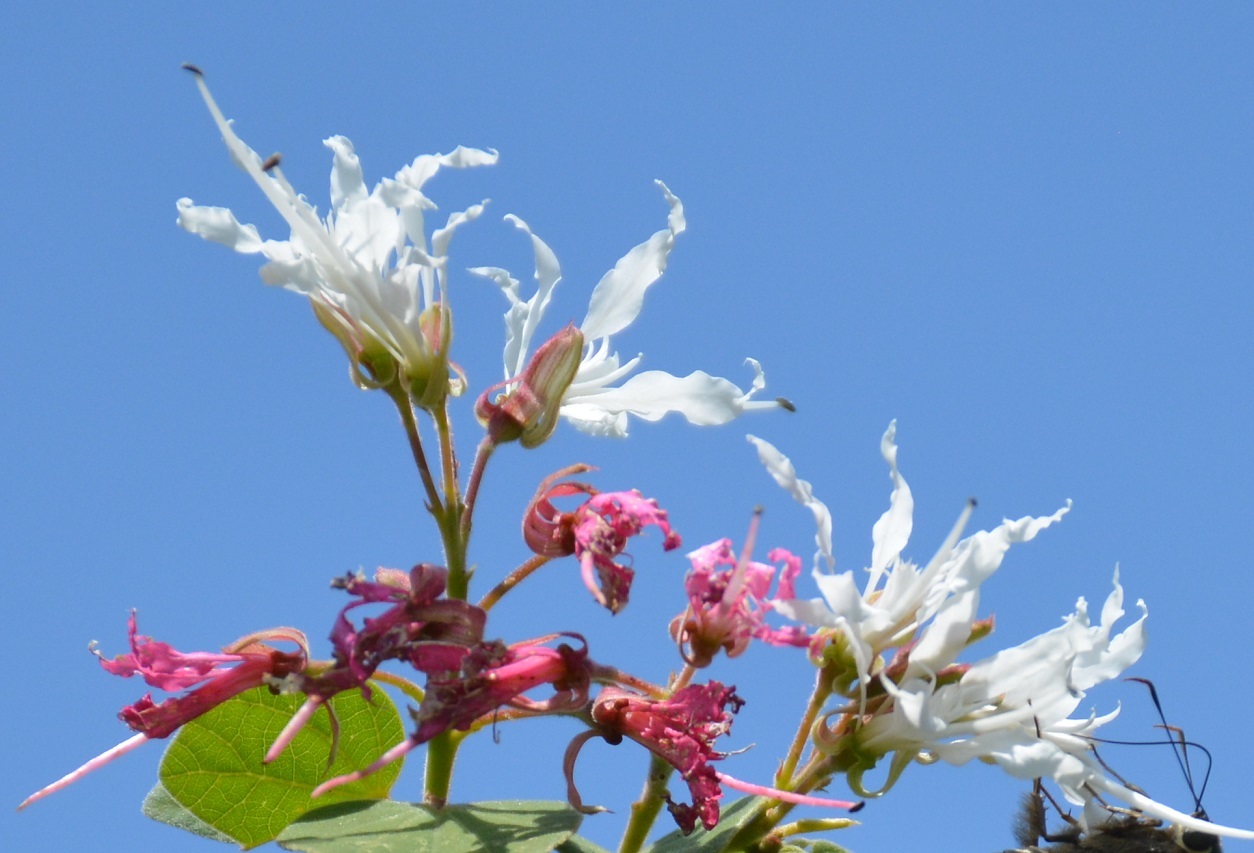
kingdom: Plantae
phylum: Tracheophyta
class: Magnoliopsida
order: Fabales
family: Fabaceae
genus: Bauhinia
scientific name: Bauhinia divaricata
